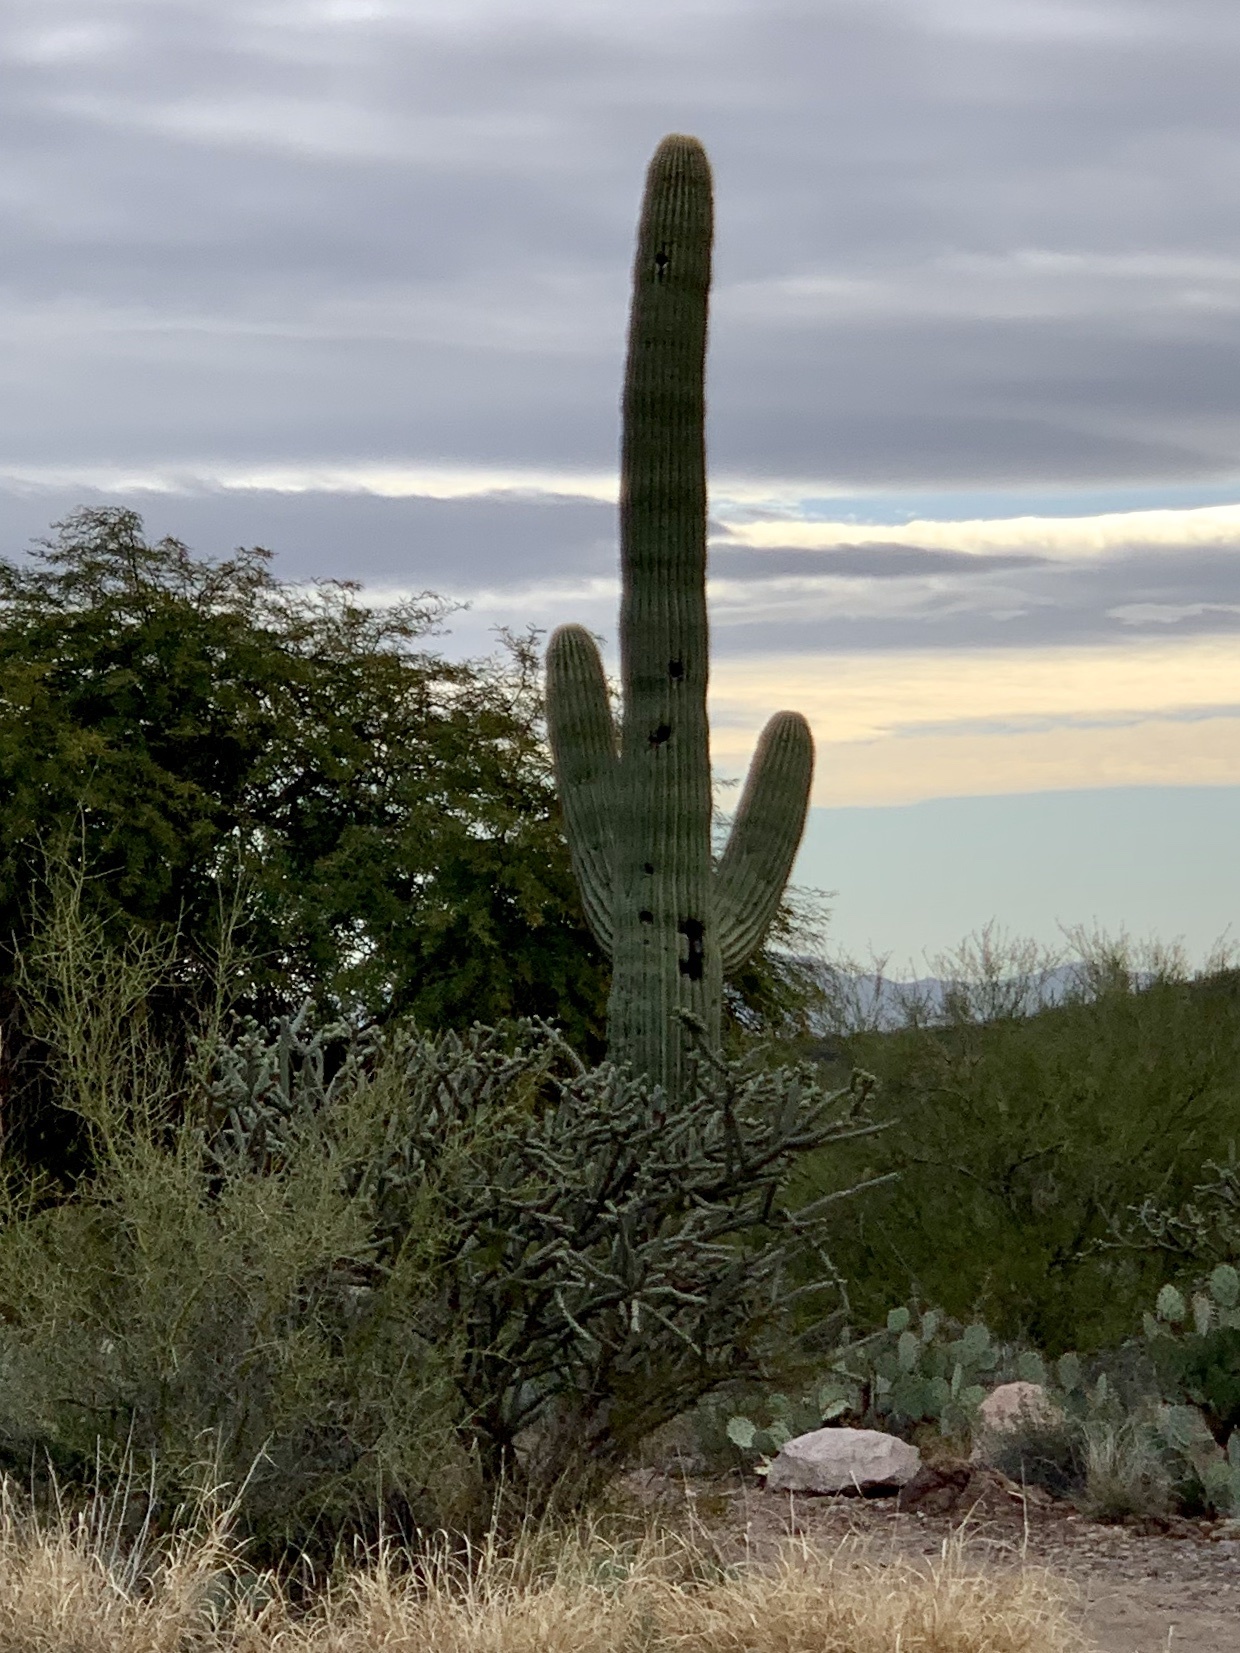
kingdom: Plantae
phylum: Tracheophyta
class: Magnoliopsida
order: Caryophyllales
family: Cactaceae
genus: Carnegiea
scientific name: Carnegiea gigantea
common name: Saguaro
